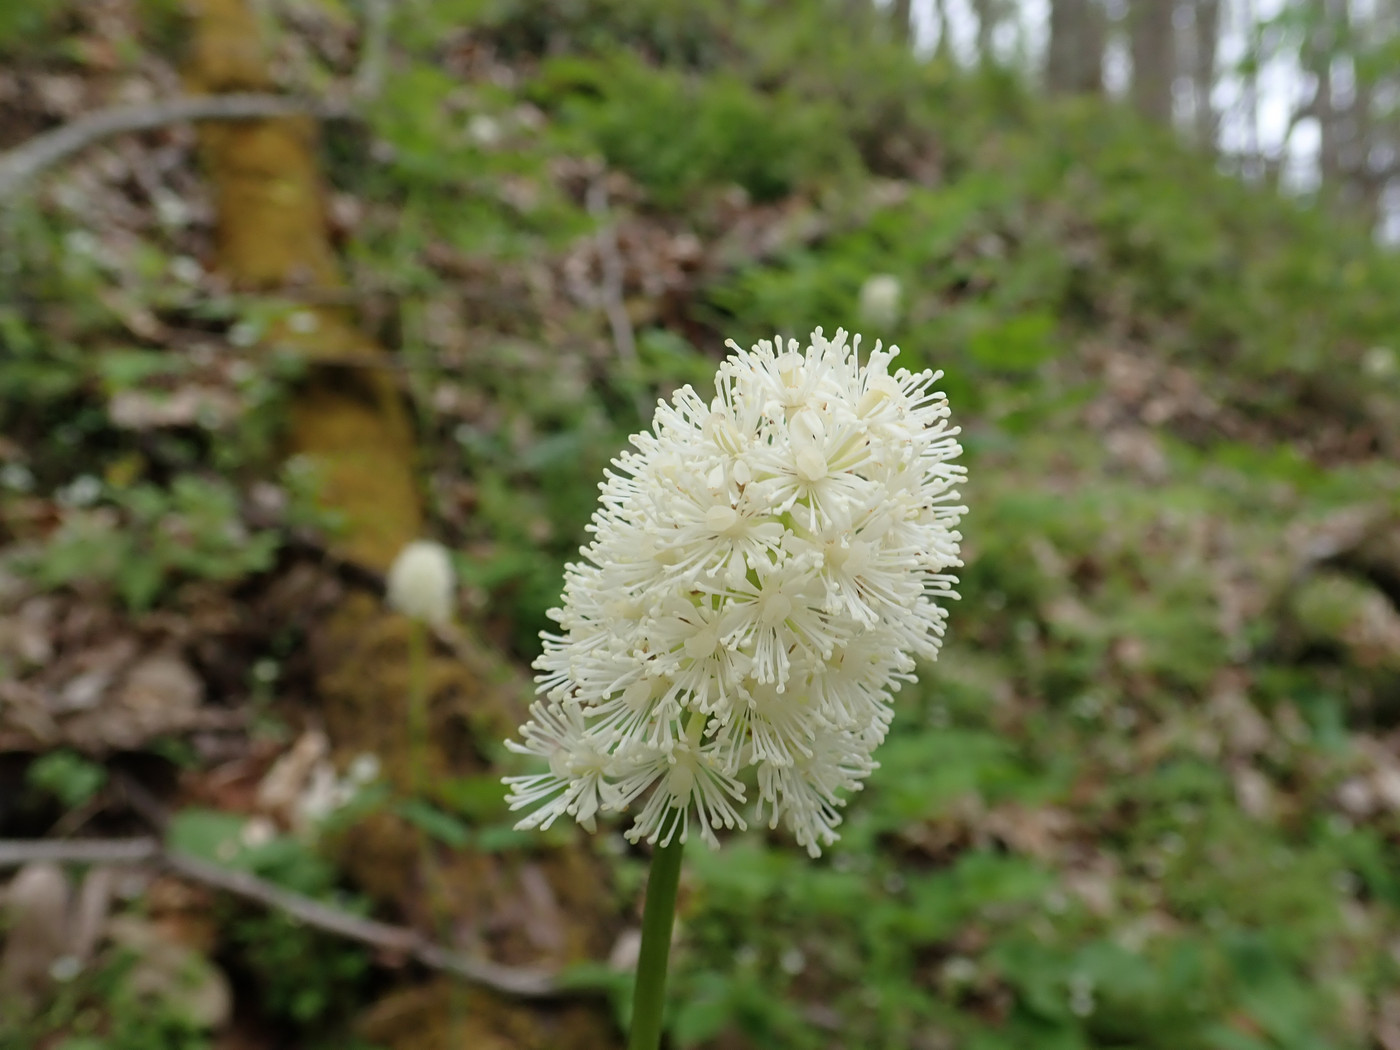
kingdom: Plantae
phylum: Tracheophyta
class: Magnoliopsida
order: Ranunculales
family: Ranunculaceae
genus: Actaea
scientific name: Actaea pachypoda
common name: Doll's-eyes
